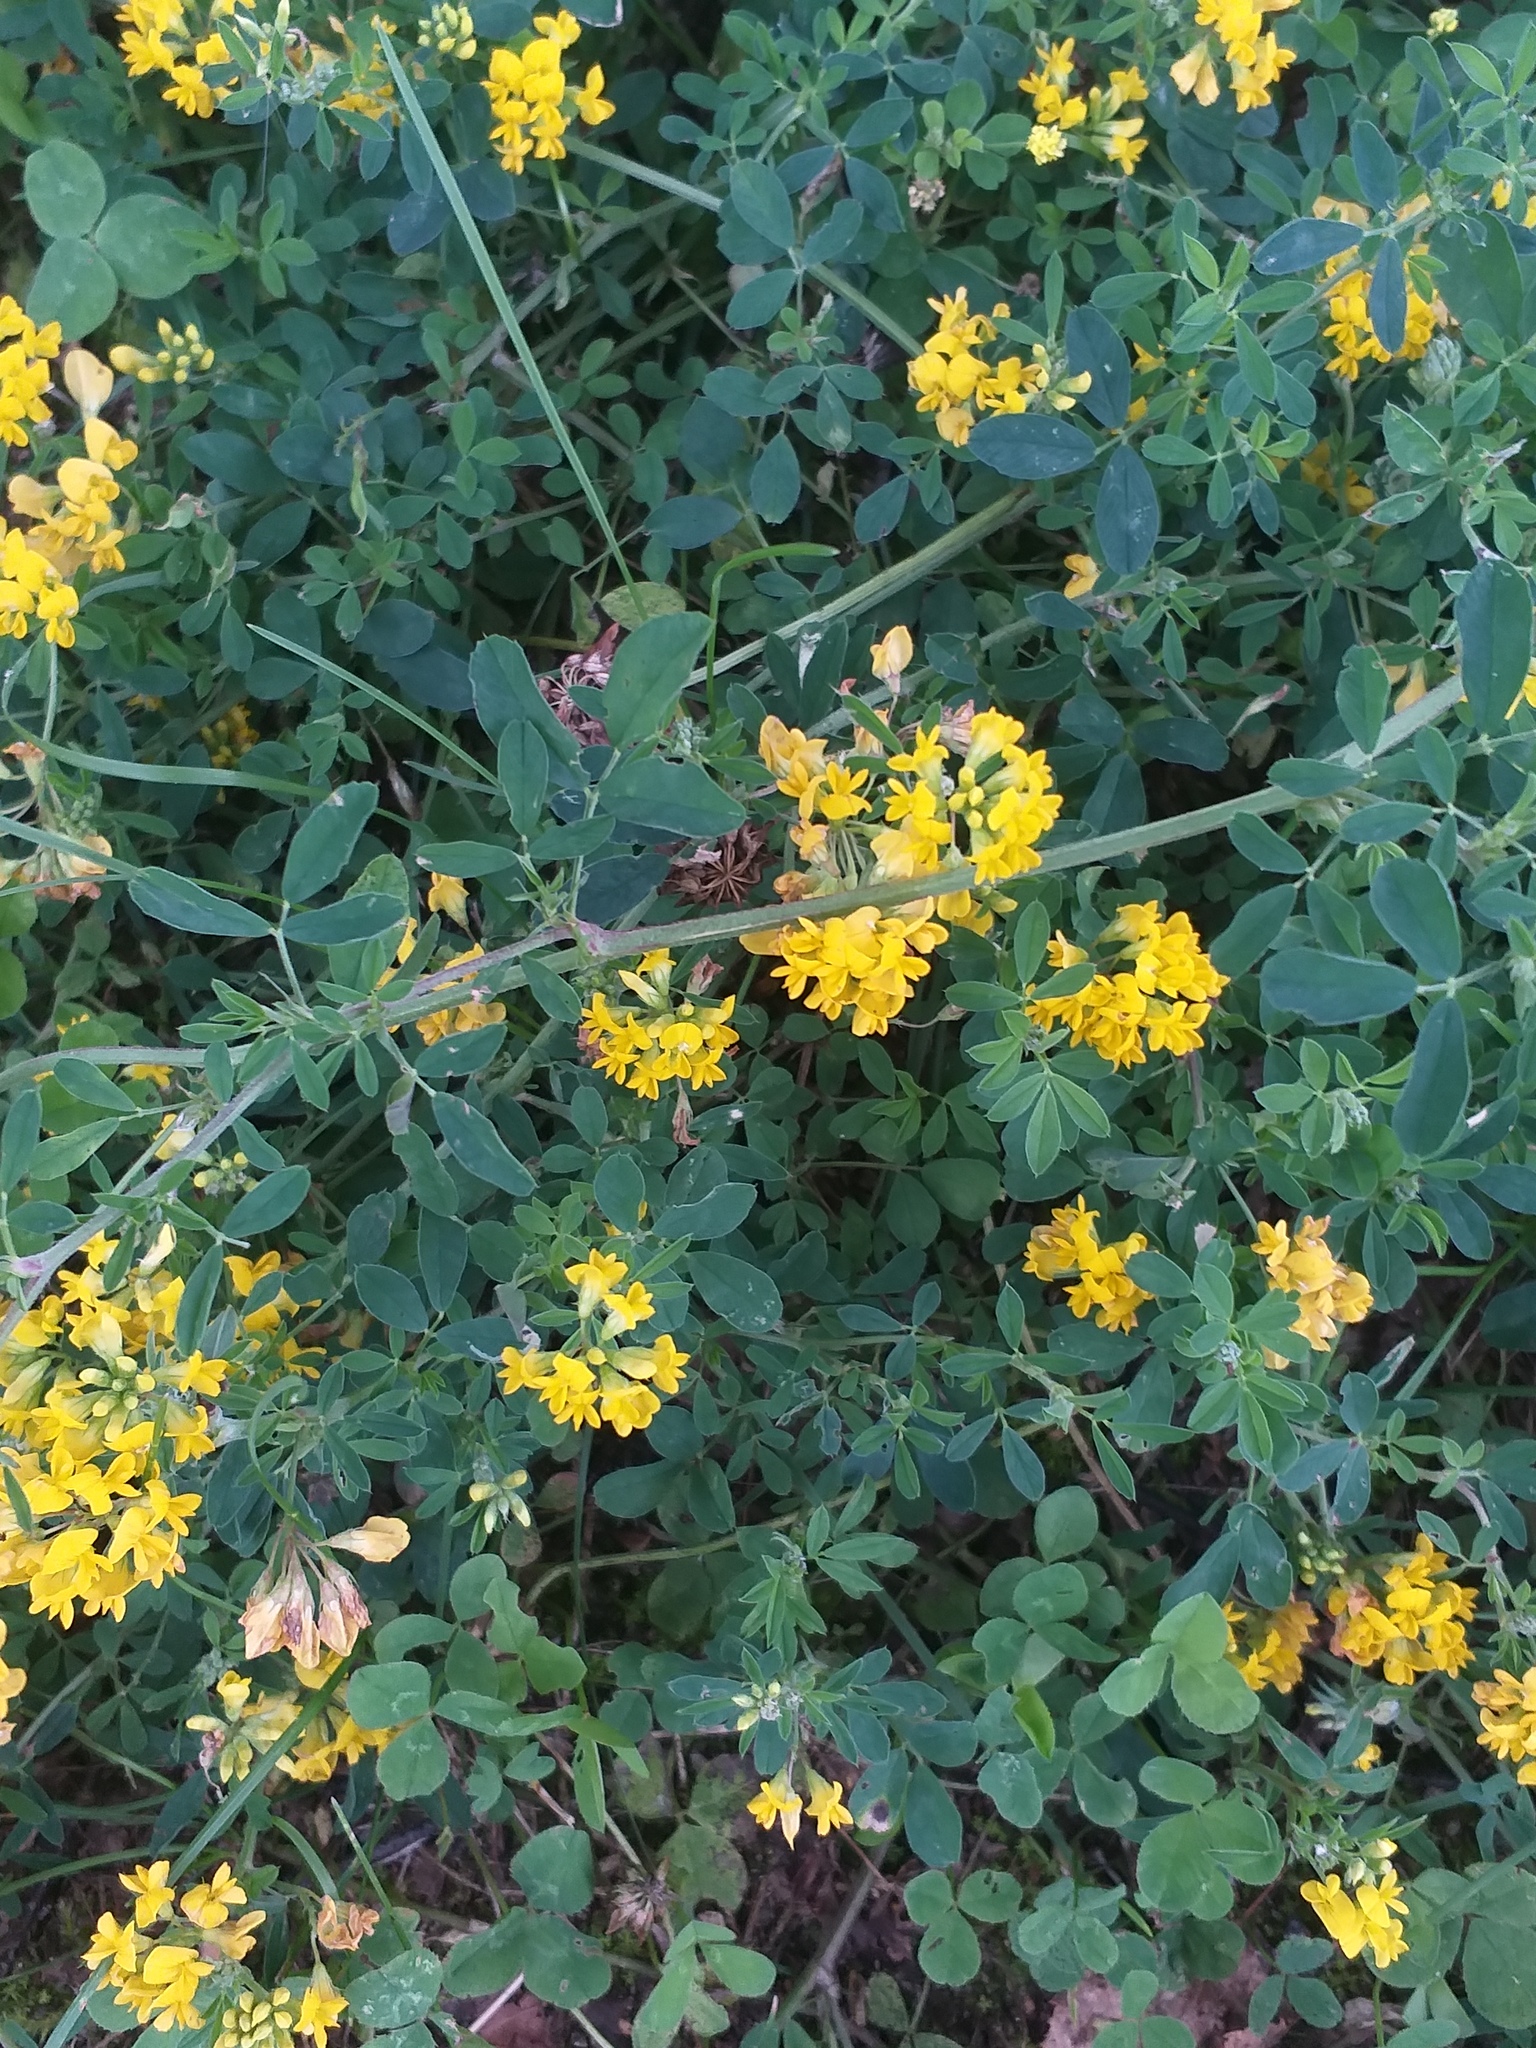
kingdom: Plantae
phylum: Tracheophyta
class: Magnoliopsida
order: Fabales
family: Fabaceae
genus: Medicago
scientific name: Medicago falcata
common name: Sickle medick
